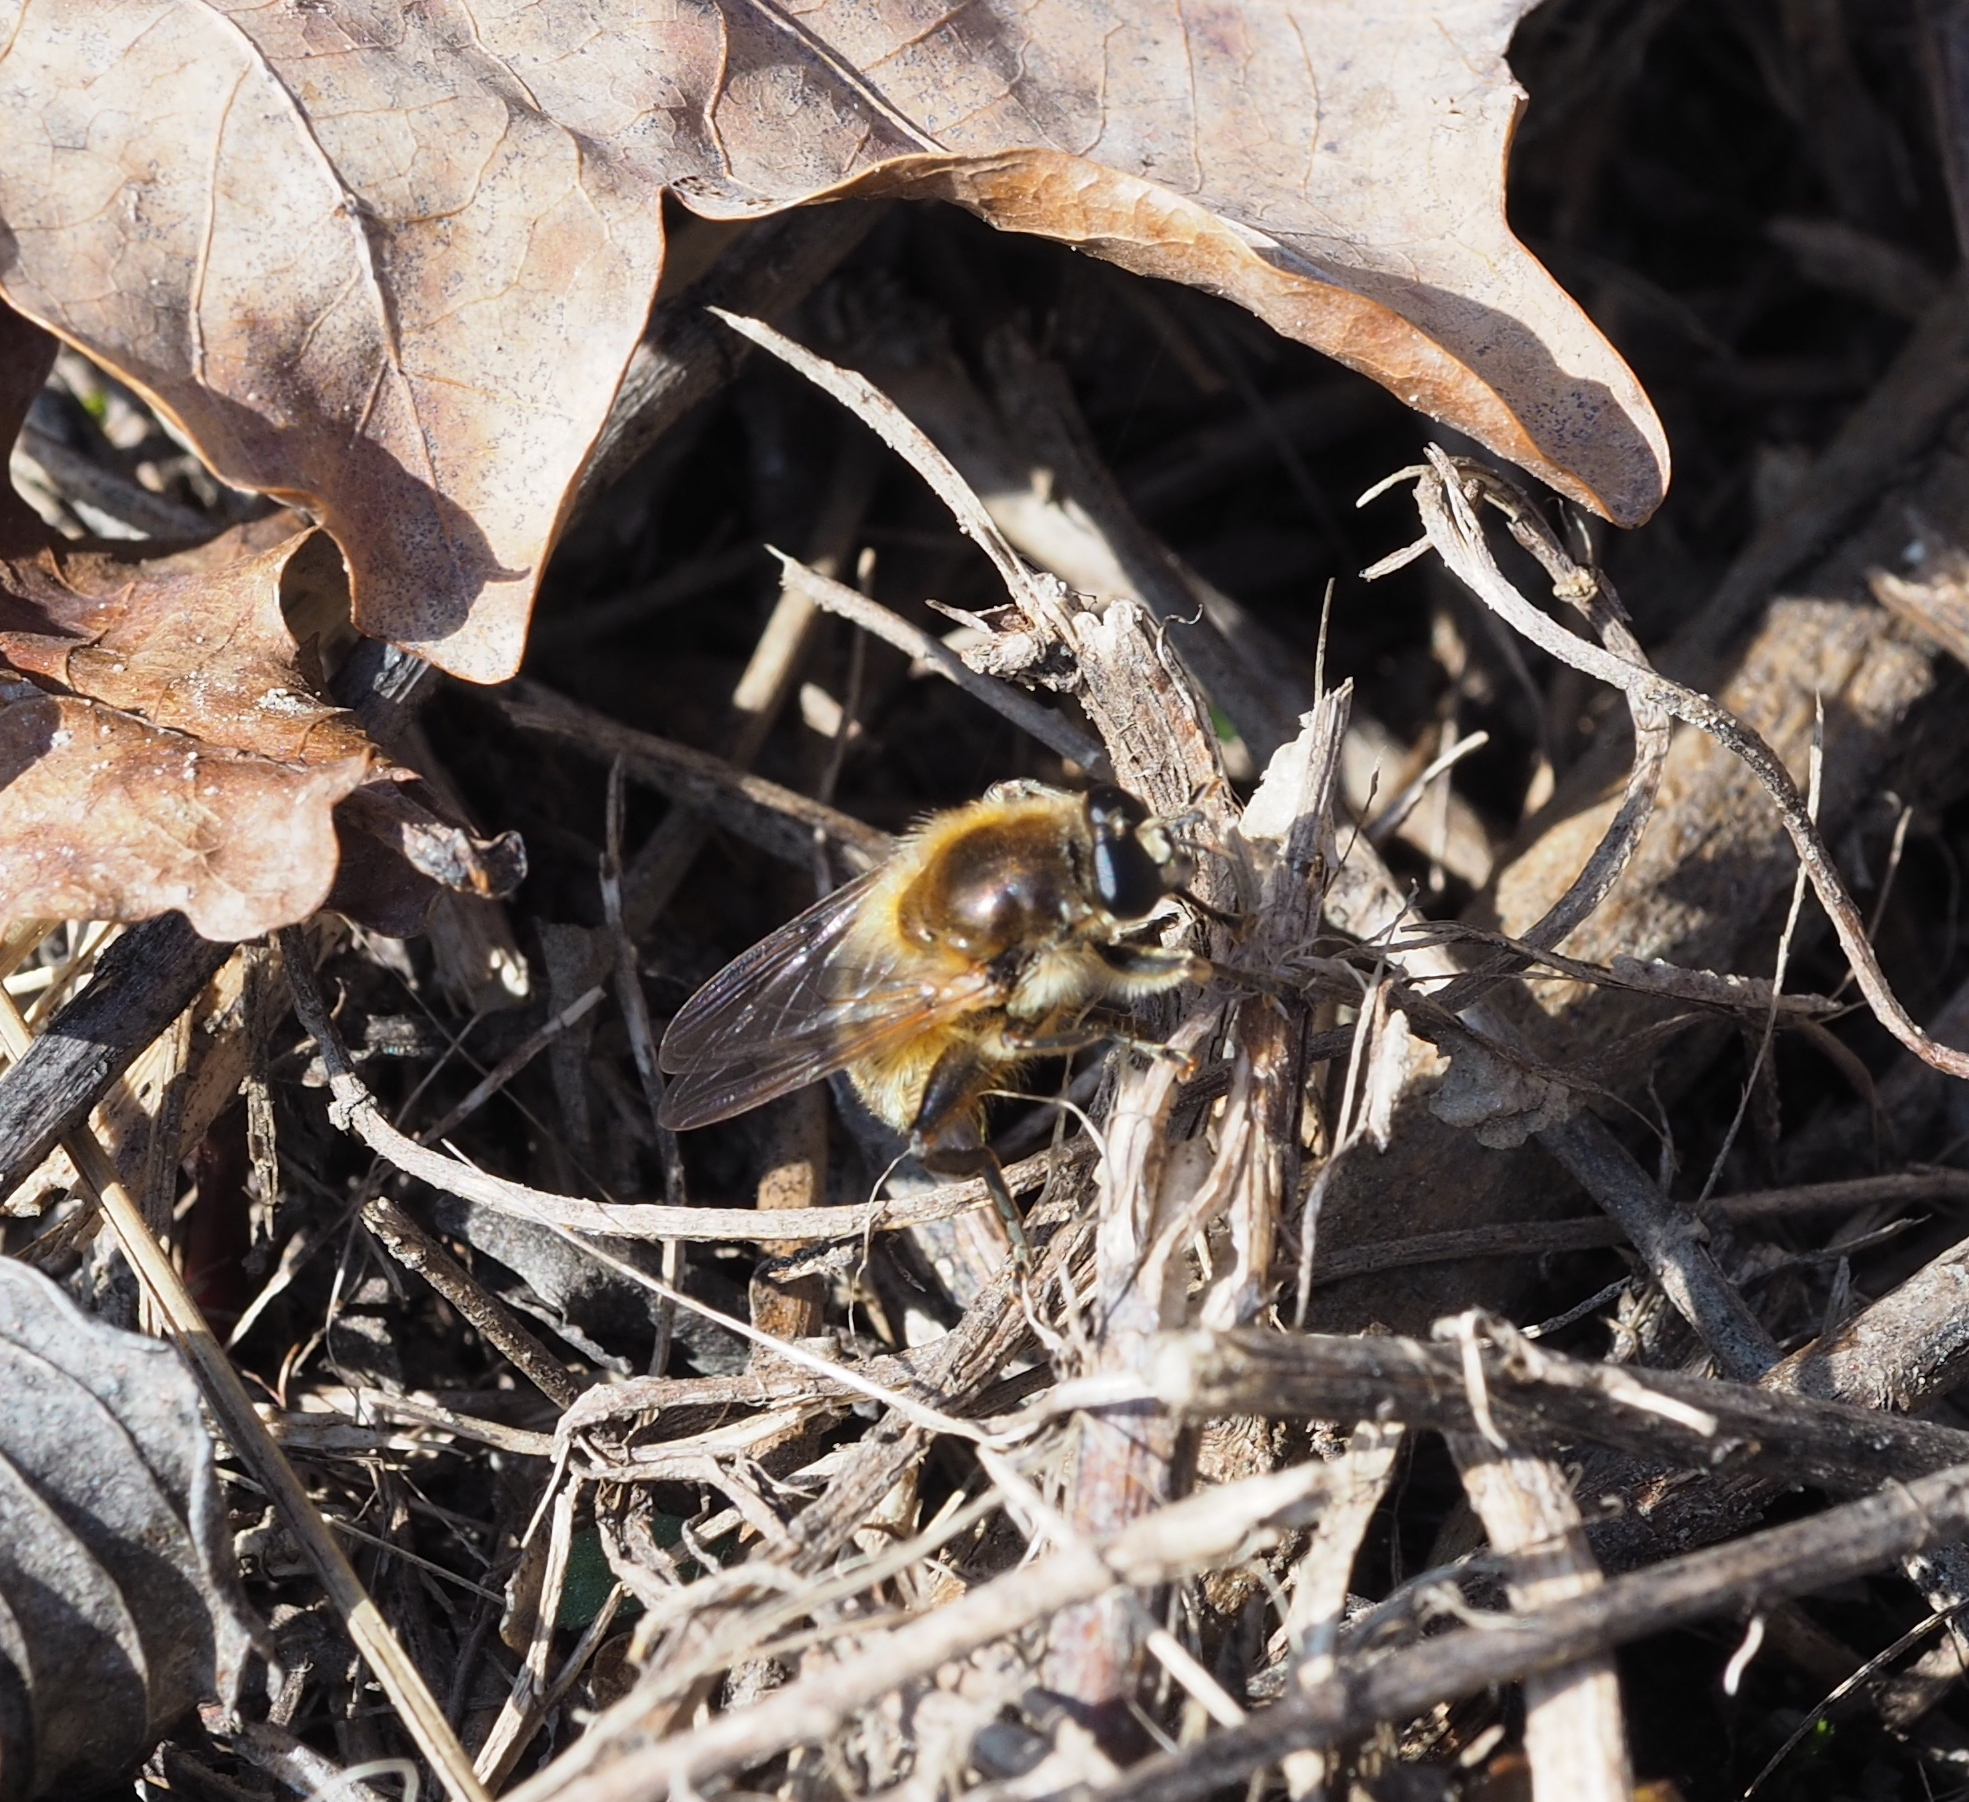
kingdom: Animalia
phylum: Arthropoda
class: Insecta
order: Diptera
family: Syrphidae
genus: Brachypalpus
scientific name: Brachypalpus valgus
